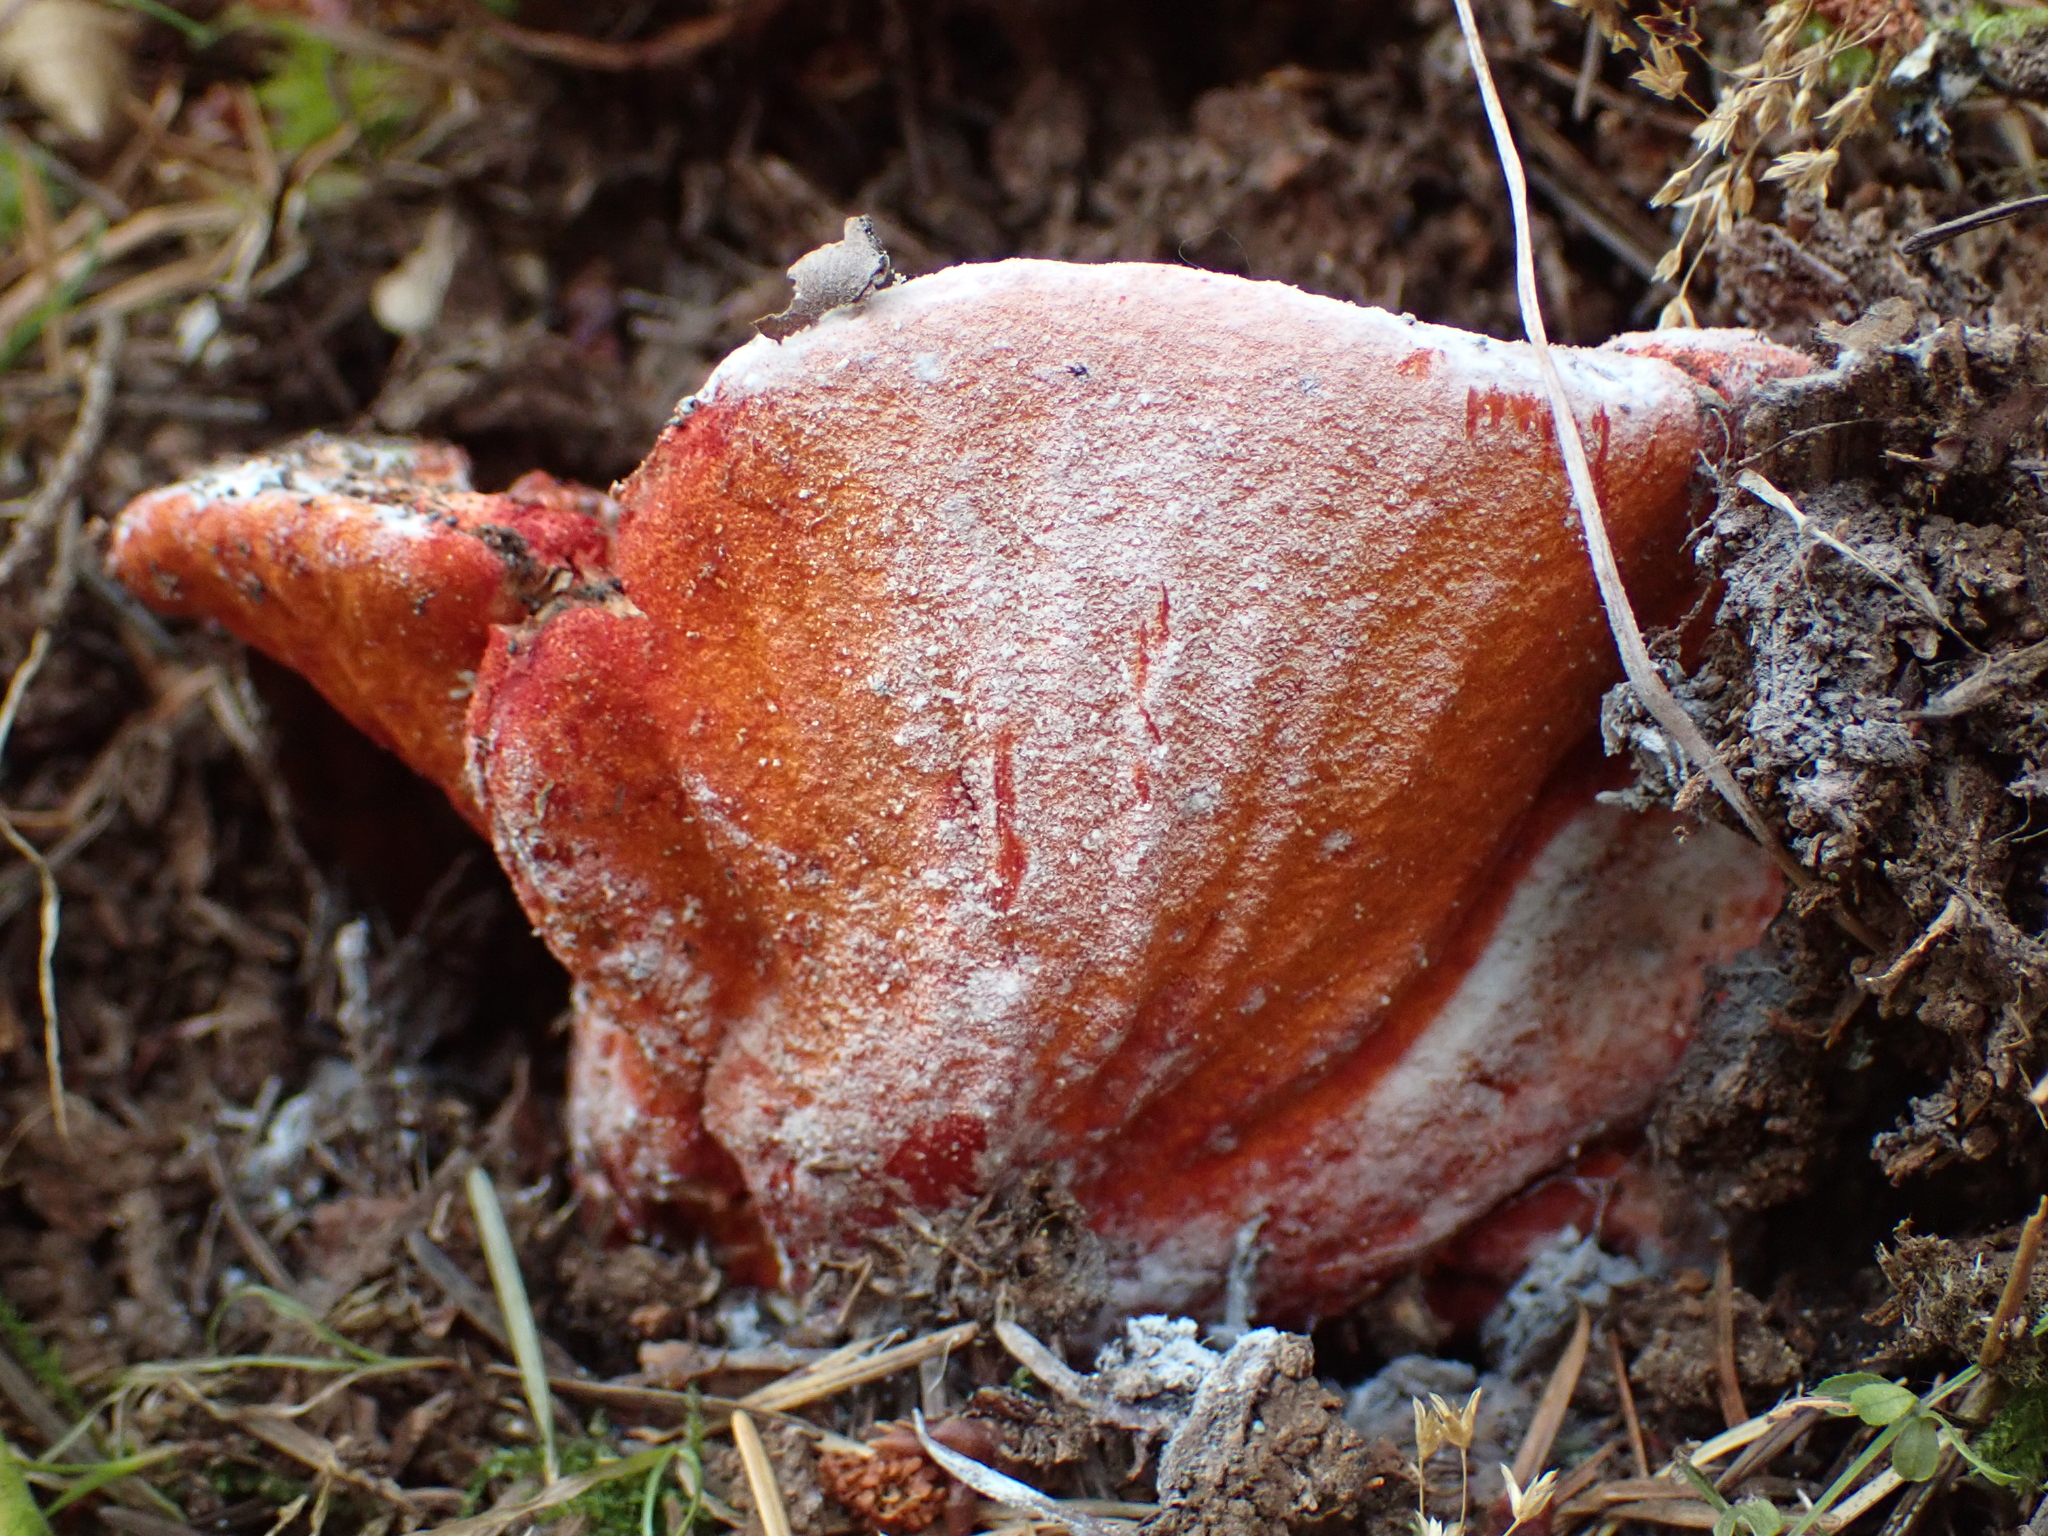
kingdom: Fungi
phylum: Ascomycota
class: Sordariomycetes
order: Hypocreales
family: Hypocreaceae
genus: Hypomyces
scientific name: Hypomyces lactifluorum
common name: Lobster mushroom
